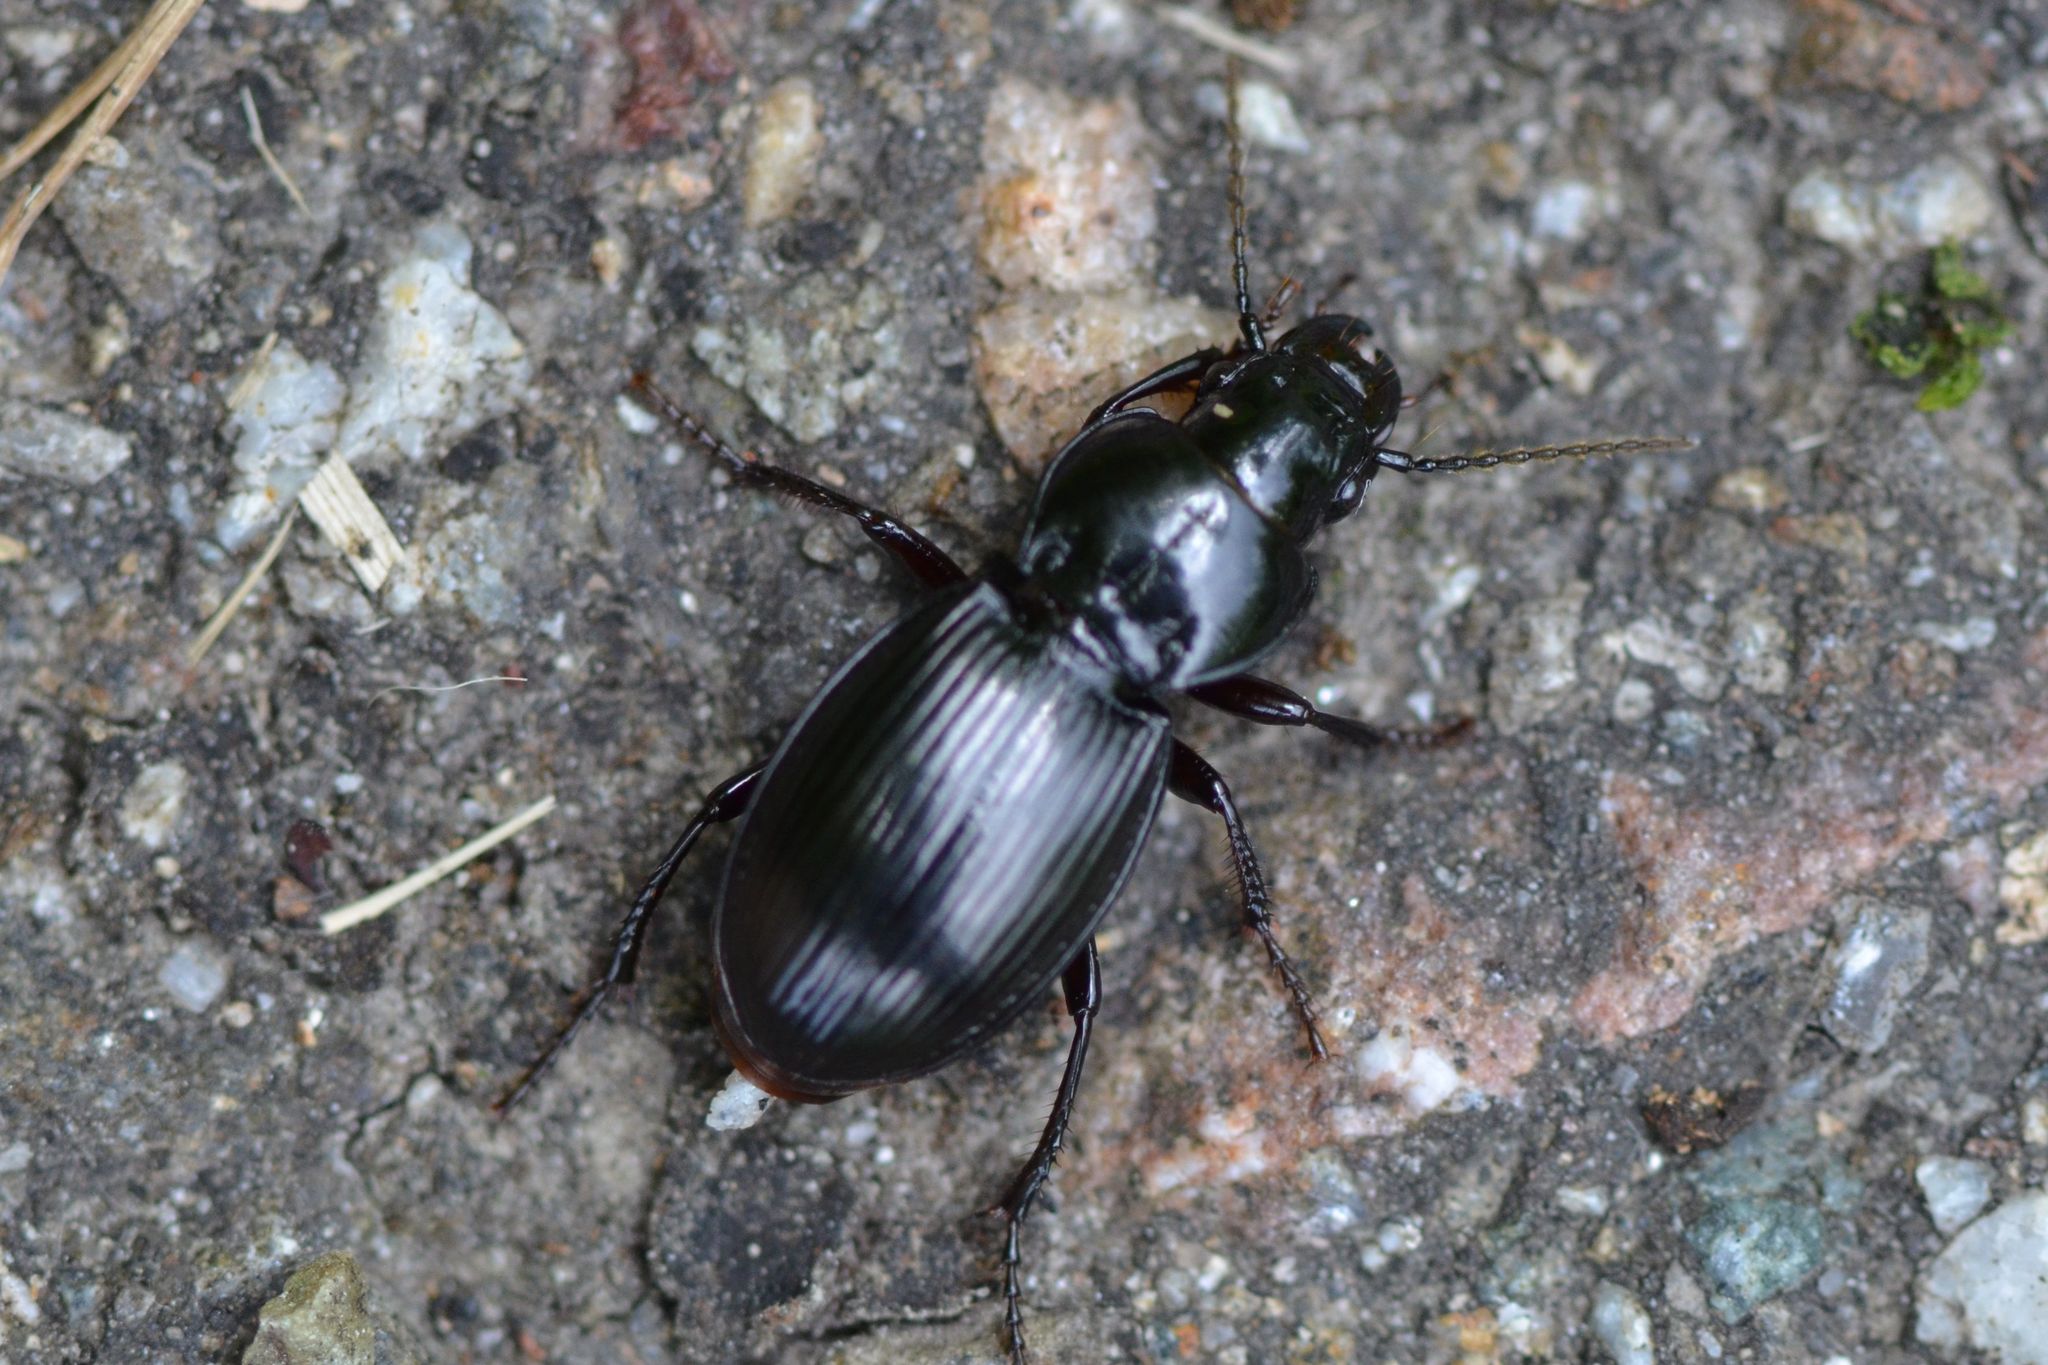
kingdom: Animalia
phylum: Arthropoda
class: Insecta
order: Coleoptera
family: Carabidae
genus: Molops
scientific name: Molops piceus
